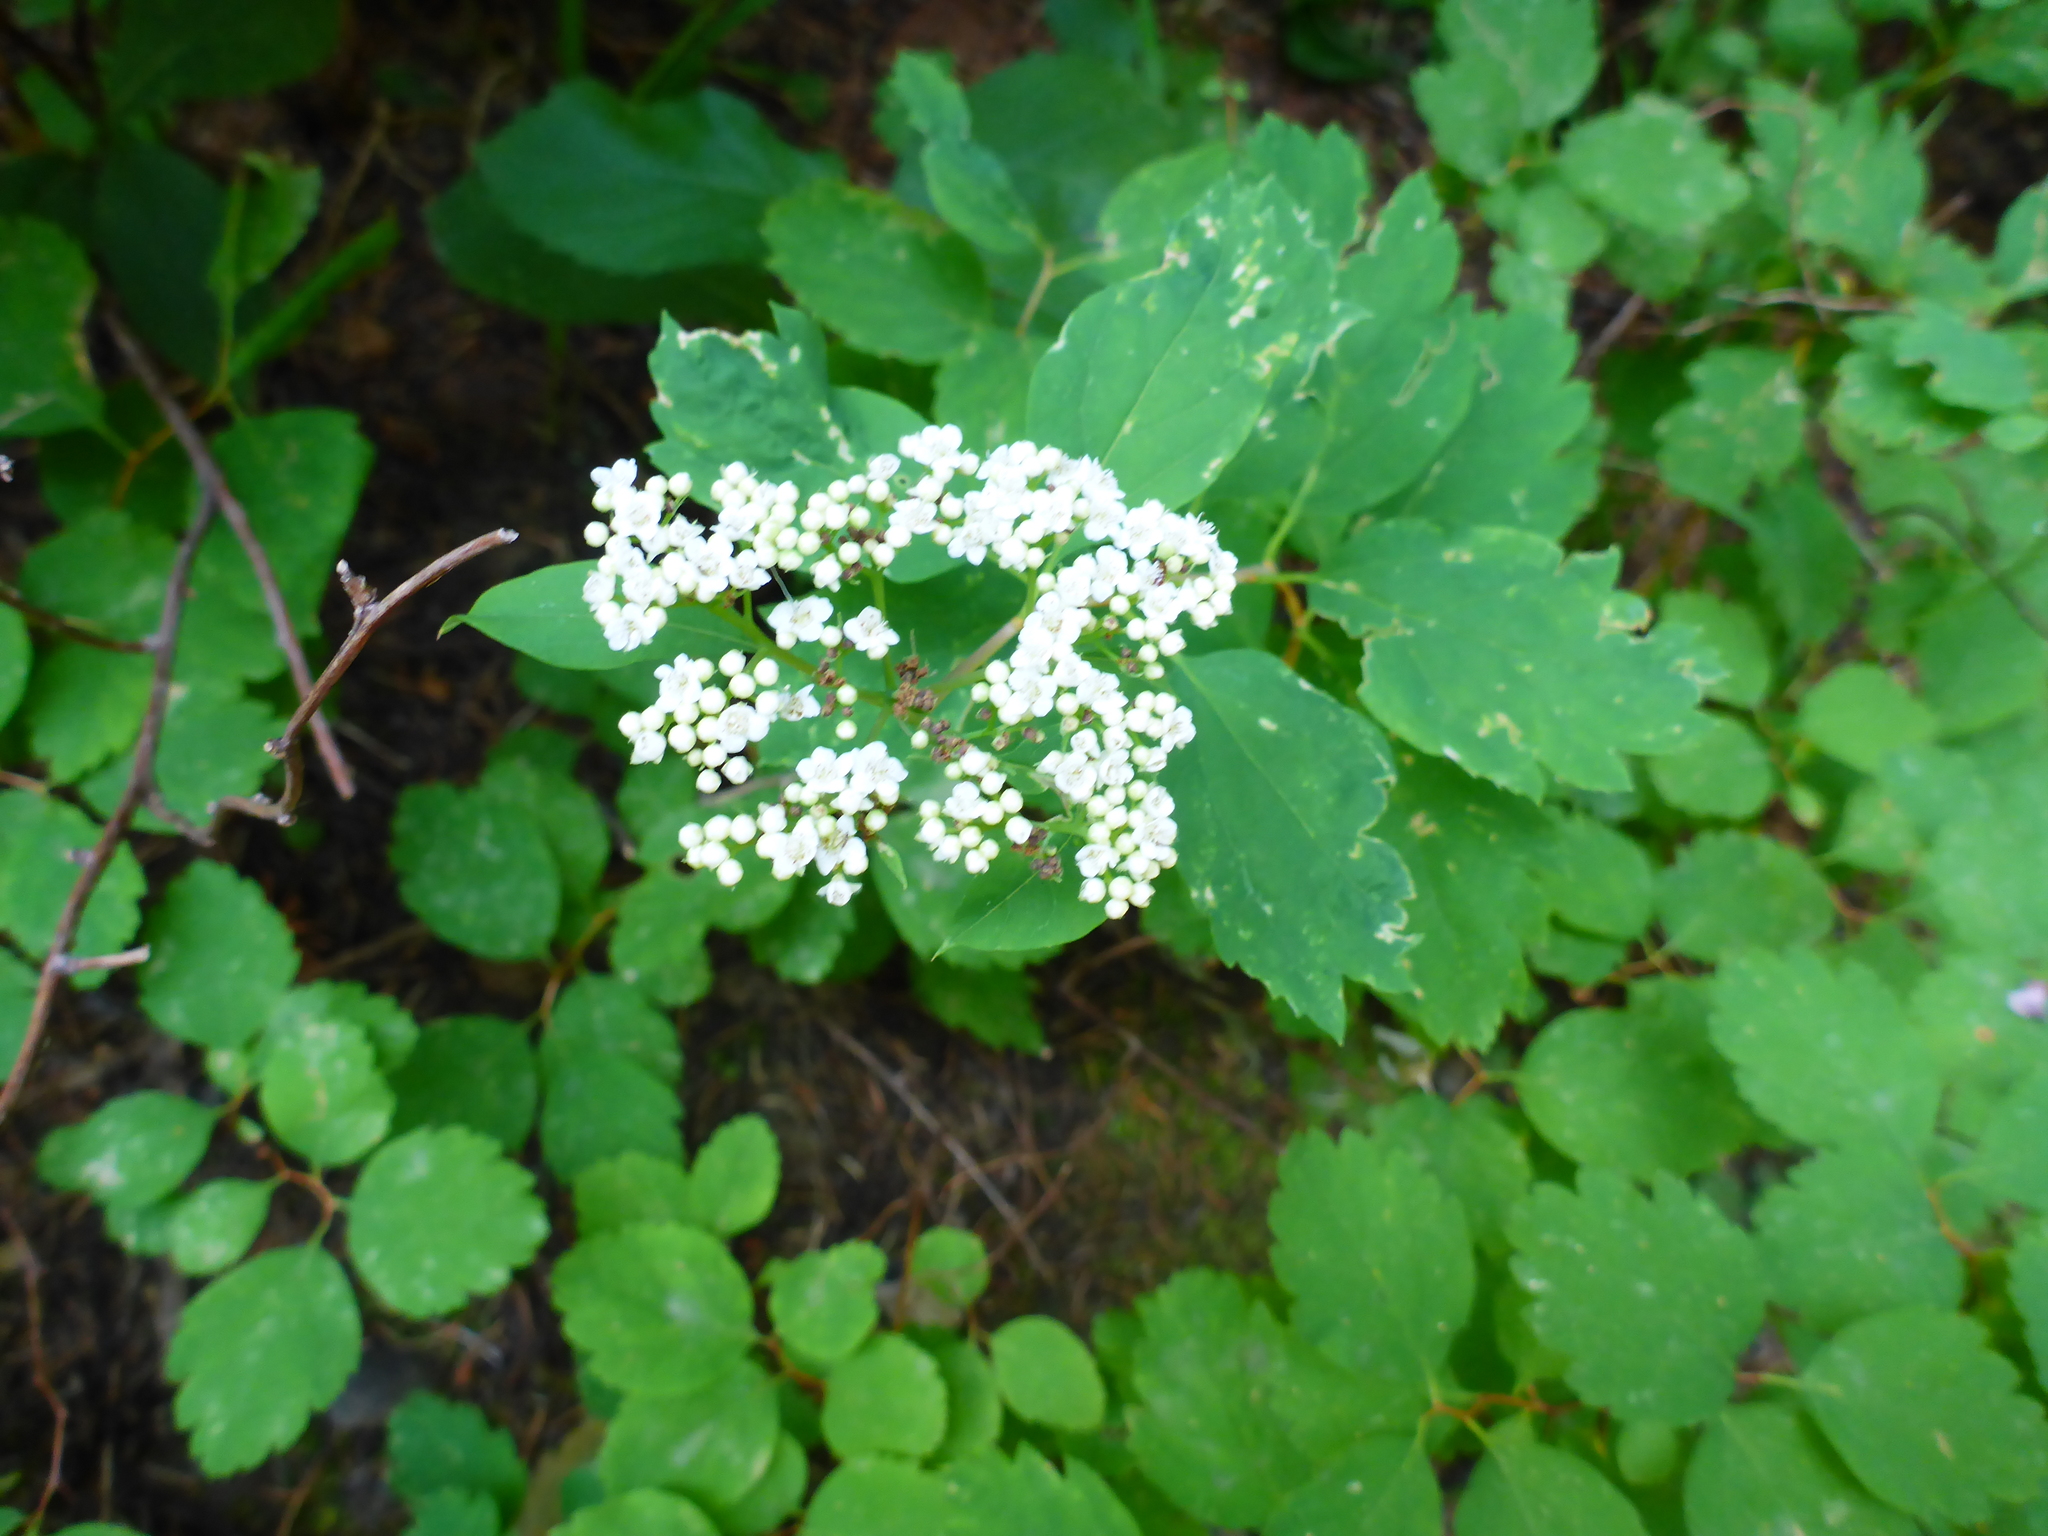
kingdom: Plantae
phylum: Tracheophyta
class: Magnoliopsida
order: Rosales
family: Rosaceae
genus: Spiraea
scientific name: Spiraea lucida
